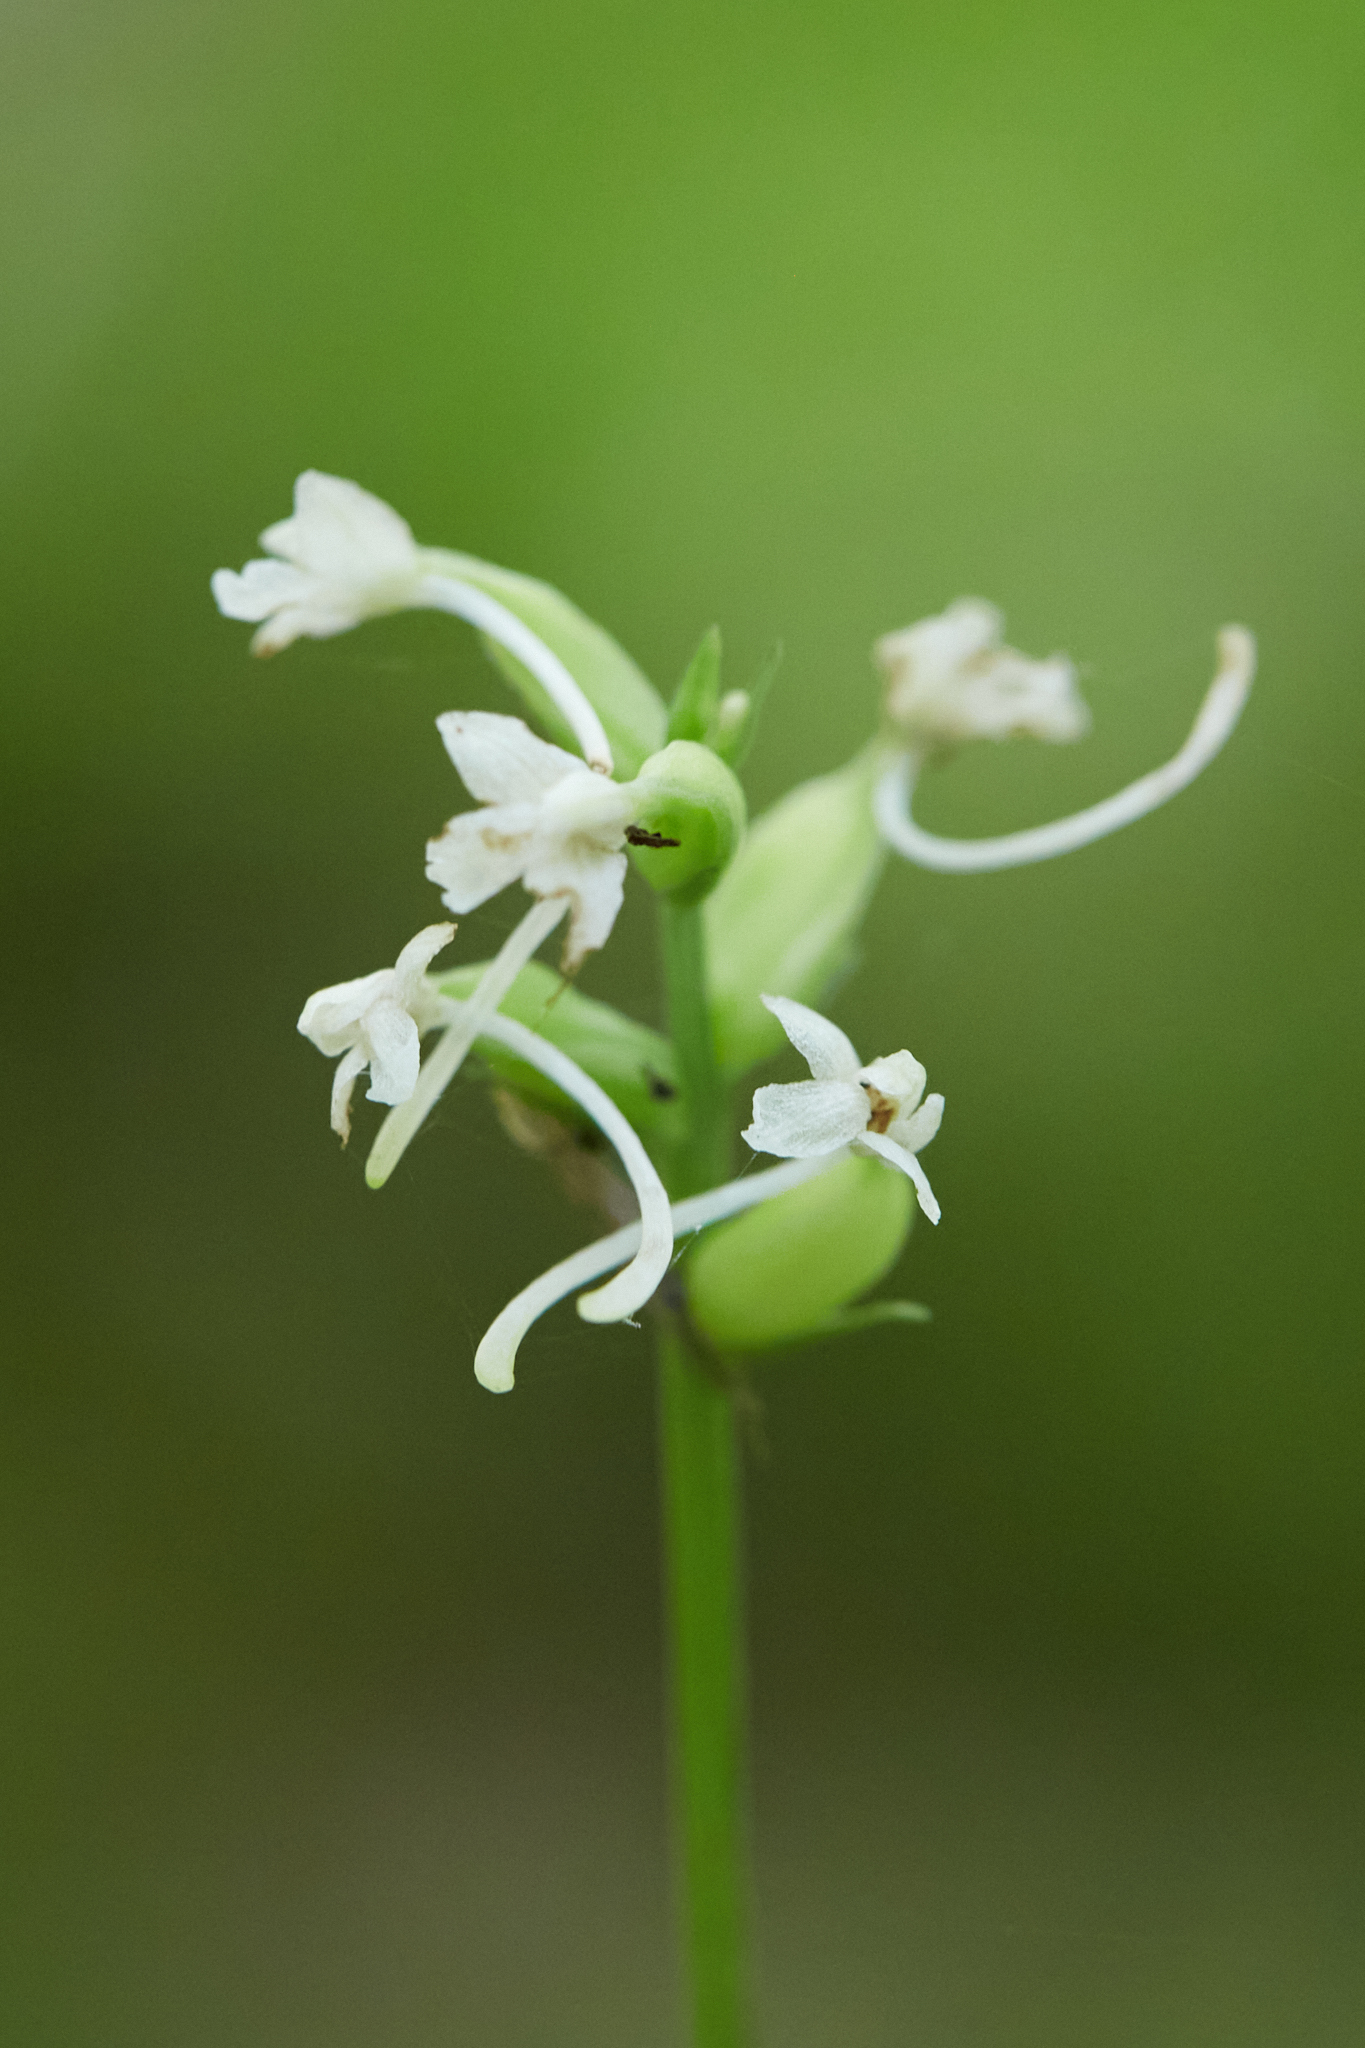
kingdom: Plantae
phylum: Tracheophyta
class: Liliopsida
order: Asparagales
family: Orchidaceae
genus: Platanthera
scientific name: Platanthera clavellata
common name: Club-spur orchid
